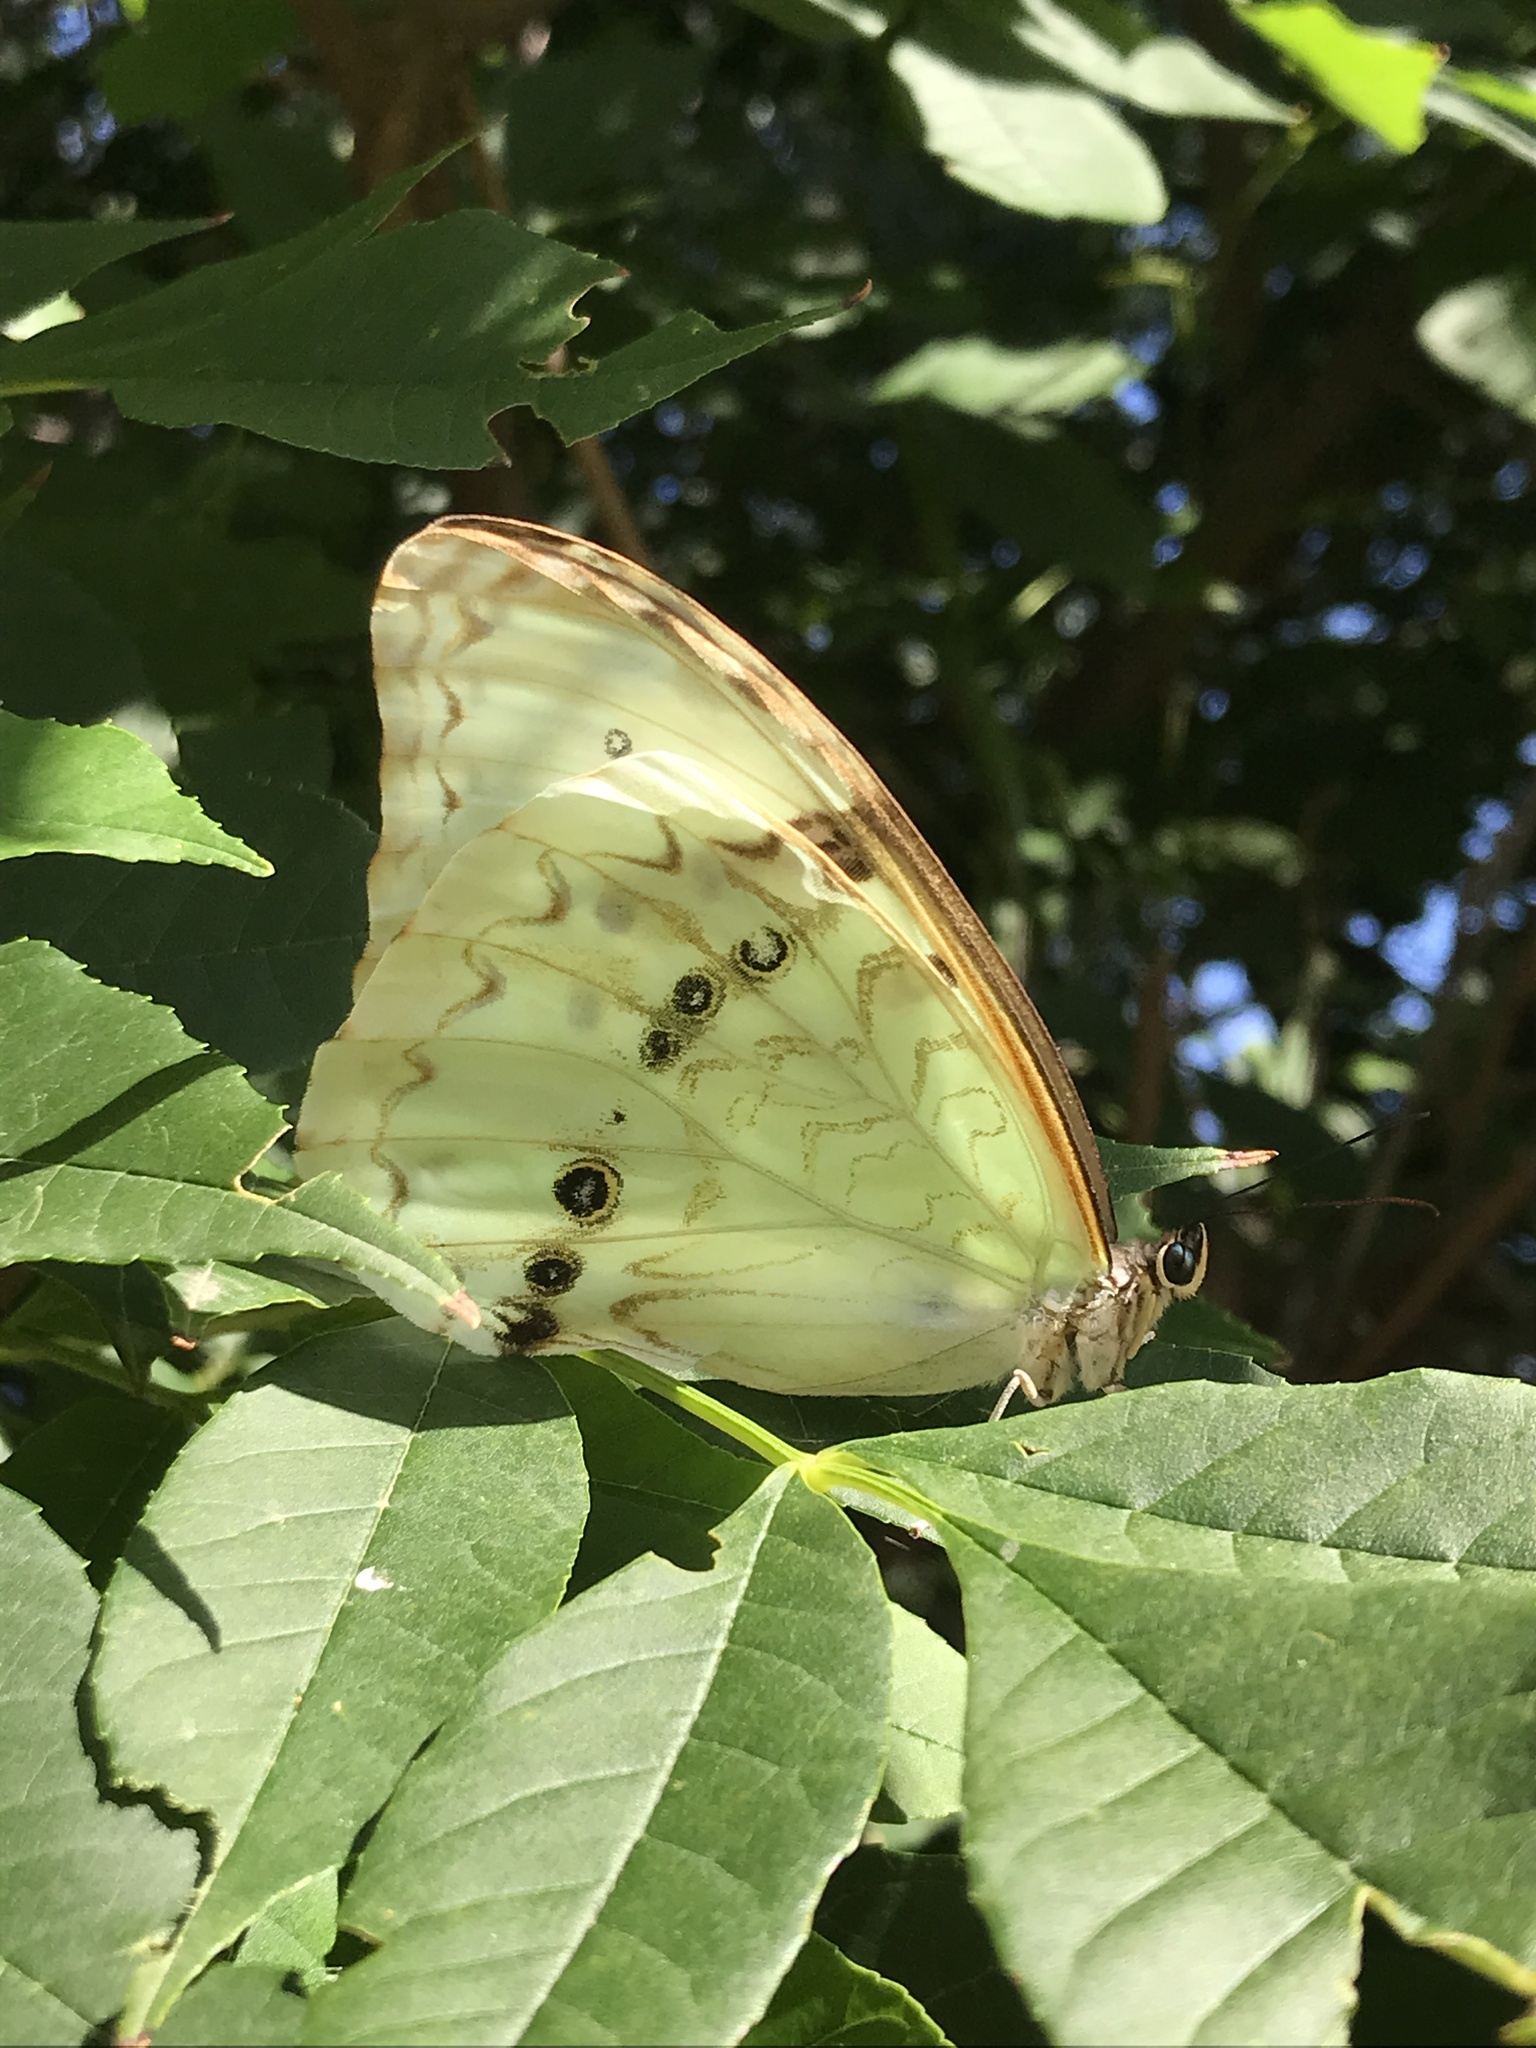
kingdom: Animalia
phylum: Arthropoda
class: Insecta
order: Lepidoptera
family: Nymphalidae
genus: Morpho
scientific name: Morpho epistrophus
